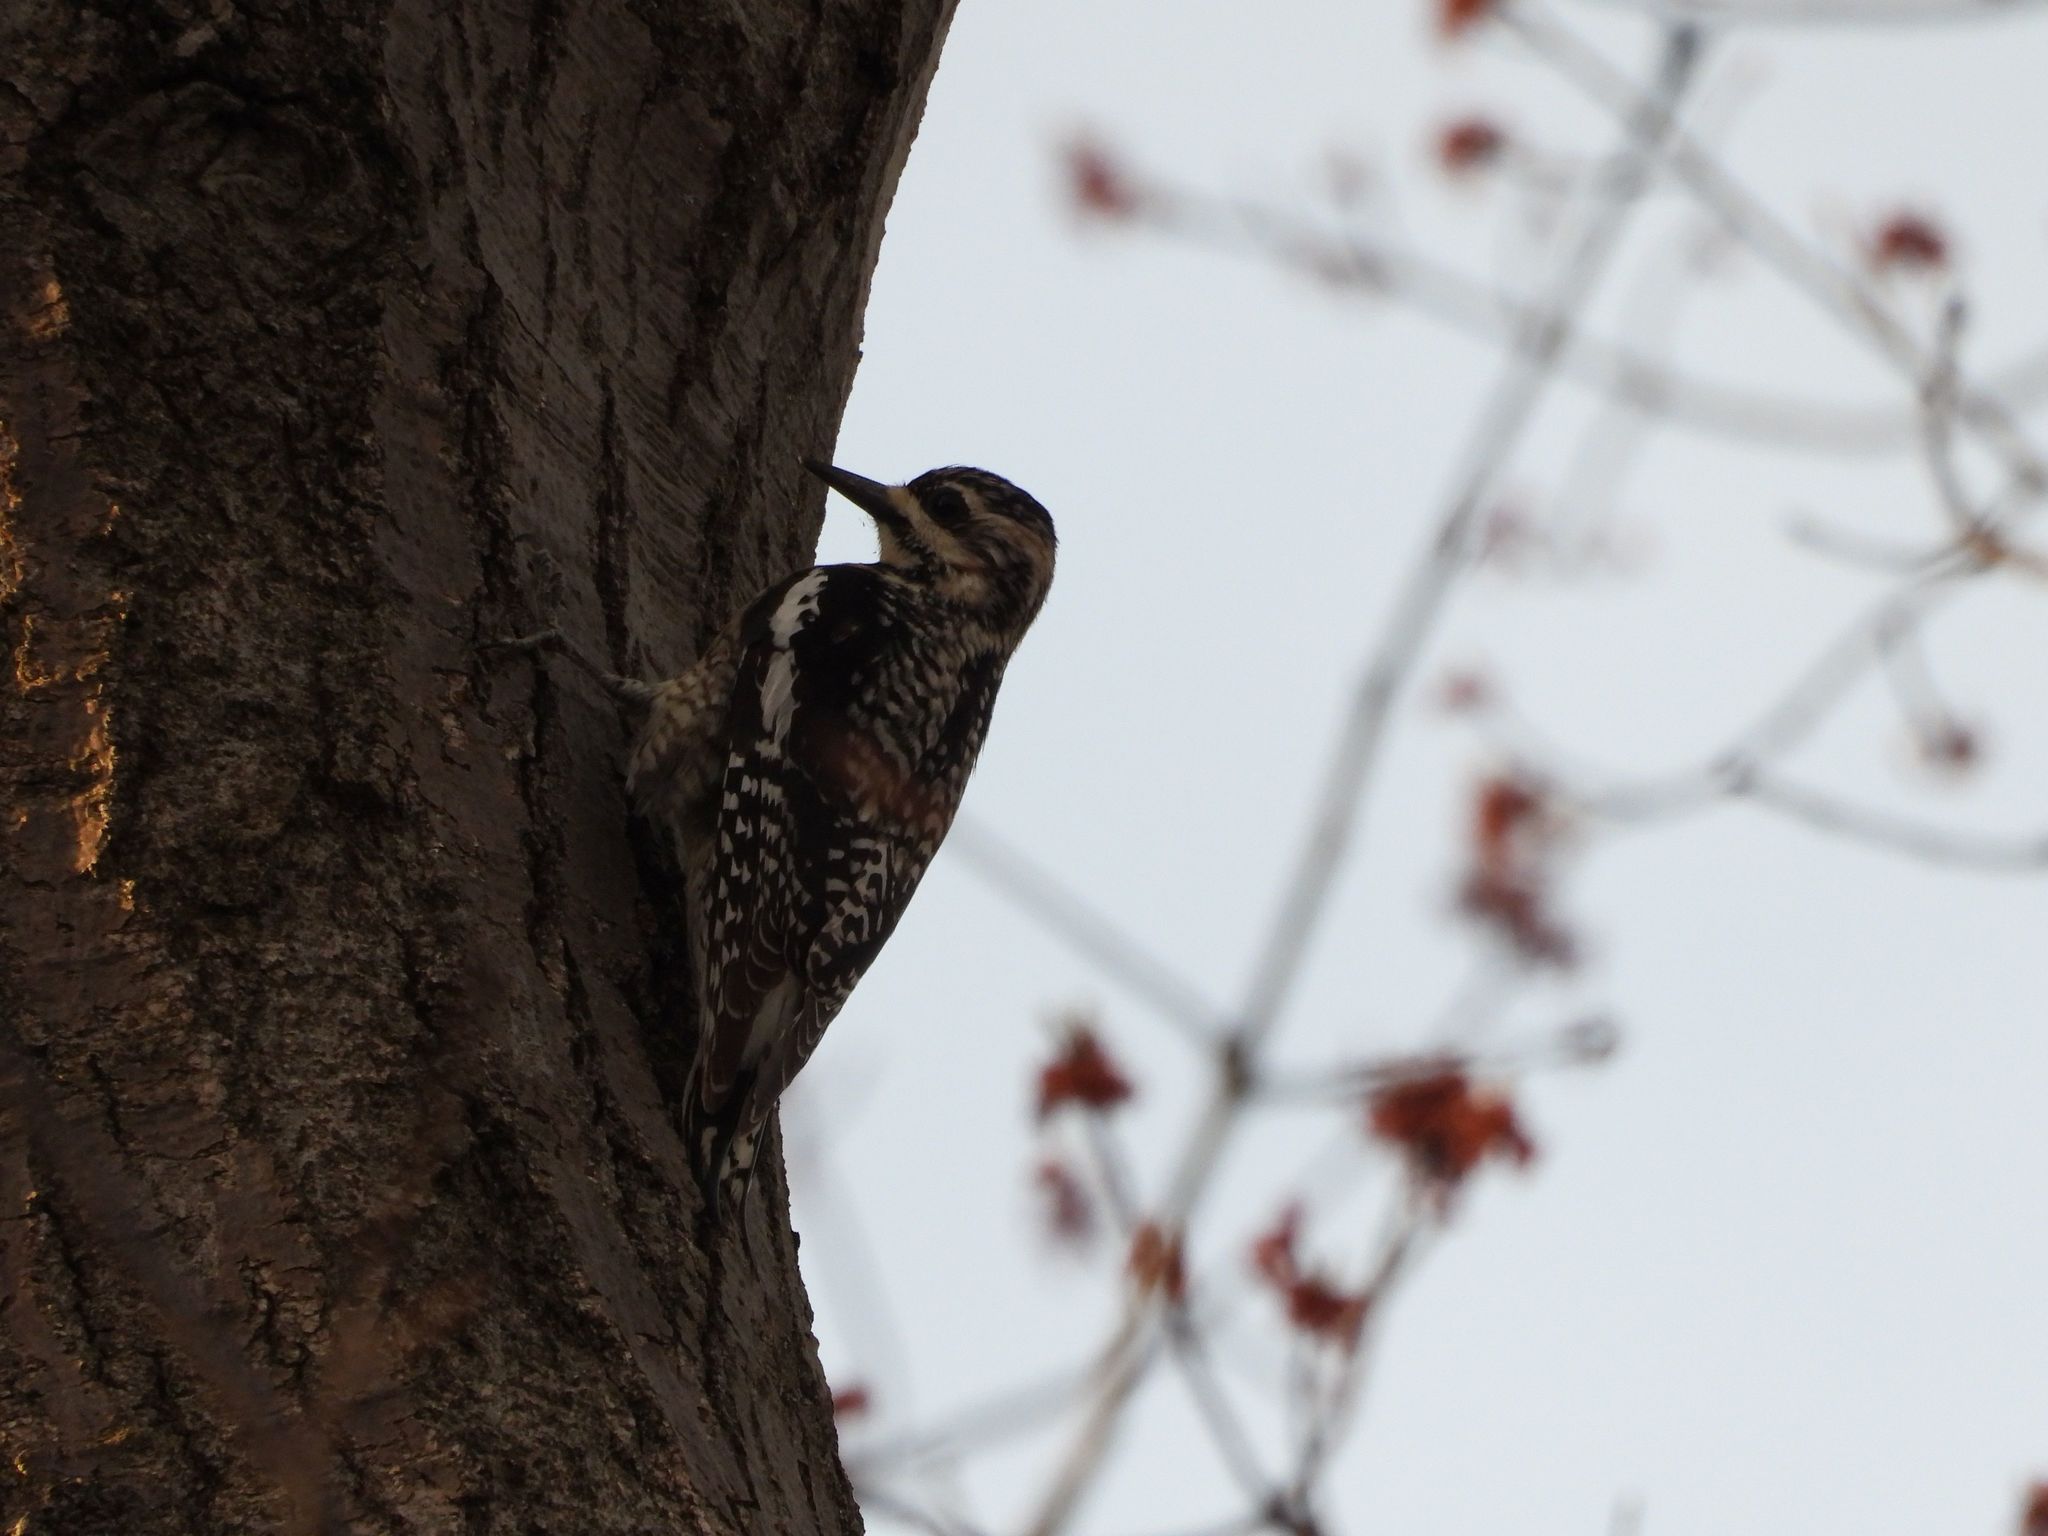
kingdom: Animalia
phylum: Chordata
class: Aves
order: Piciformes
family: Picidae
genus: Sphyrapicus
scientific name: Sphyrapicus varius
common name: Yellow-bellied sapsucker
